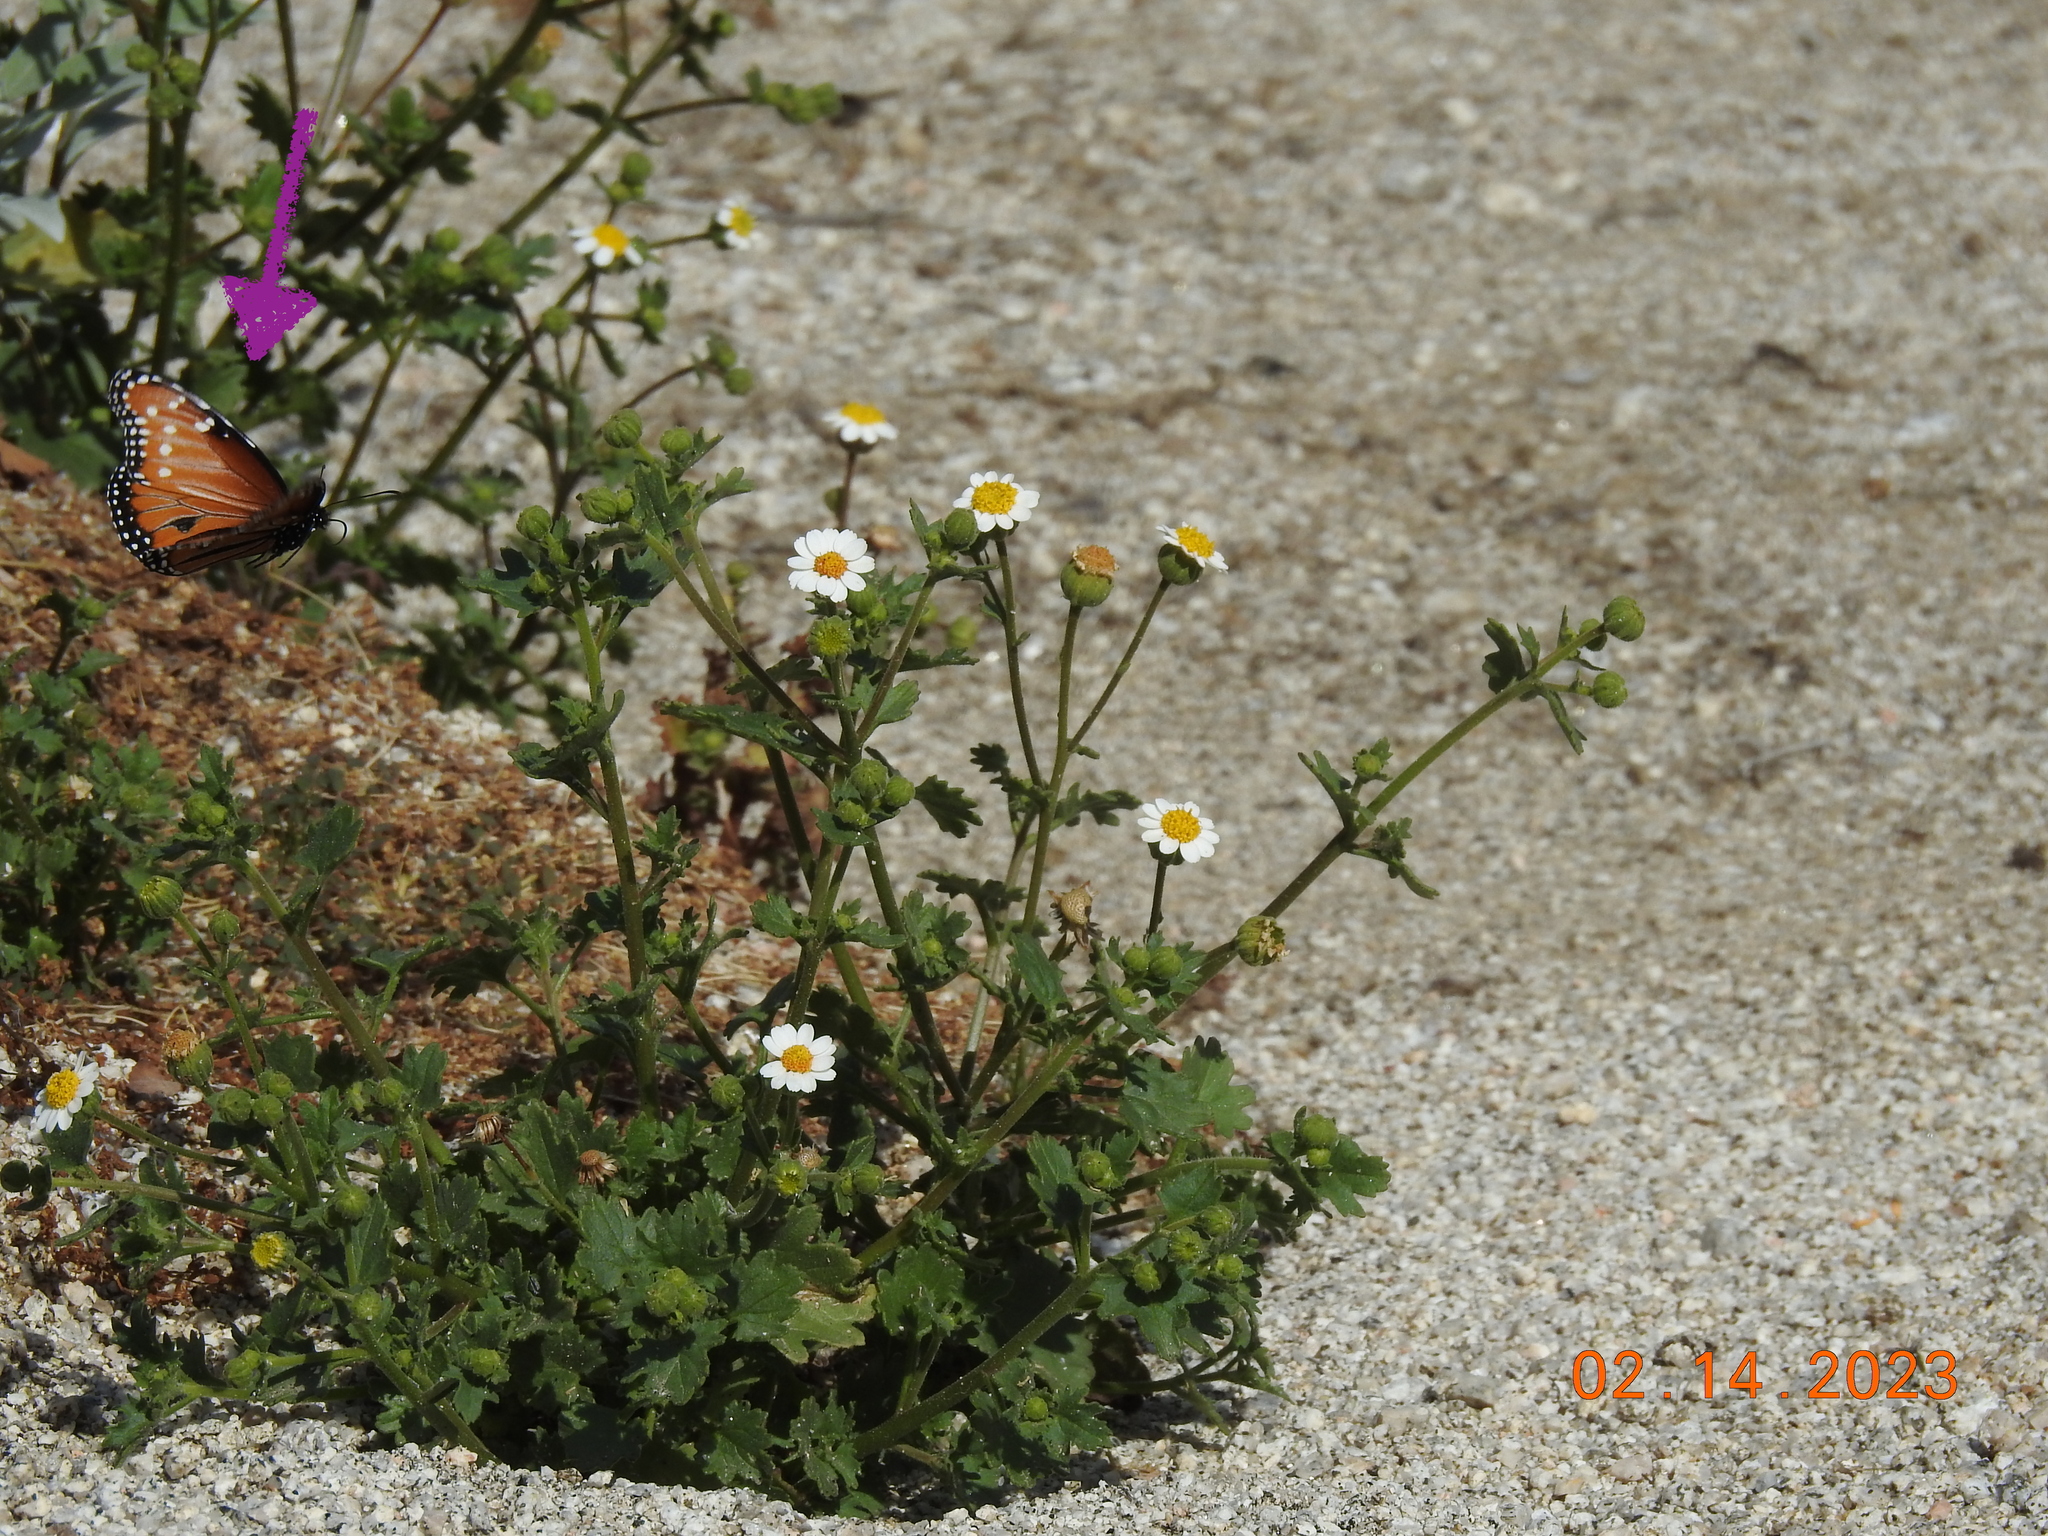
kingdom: Animalia
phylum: Arthropoda
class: Insecta
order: Lepidoptera
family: Nymphalidae
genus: Danaus
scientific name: Danaus gilippus
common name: Queen
